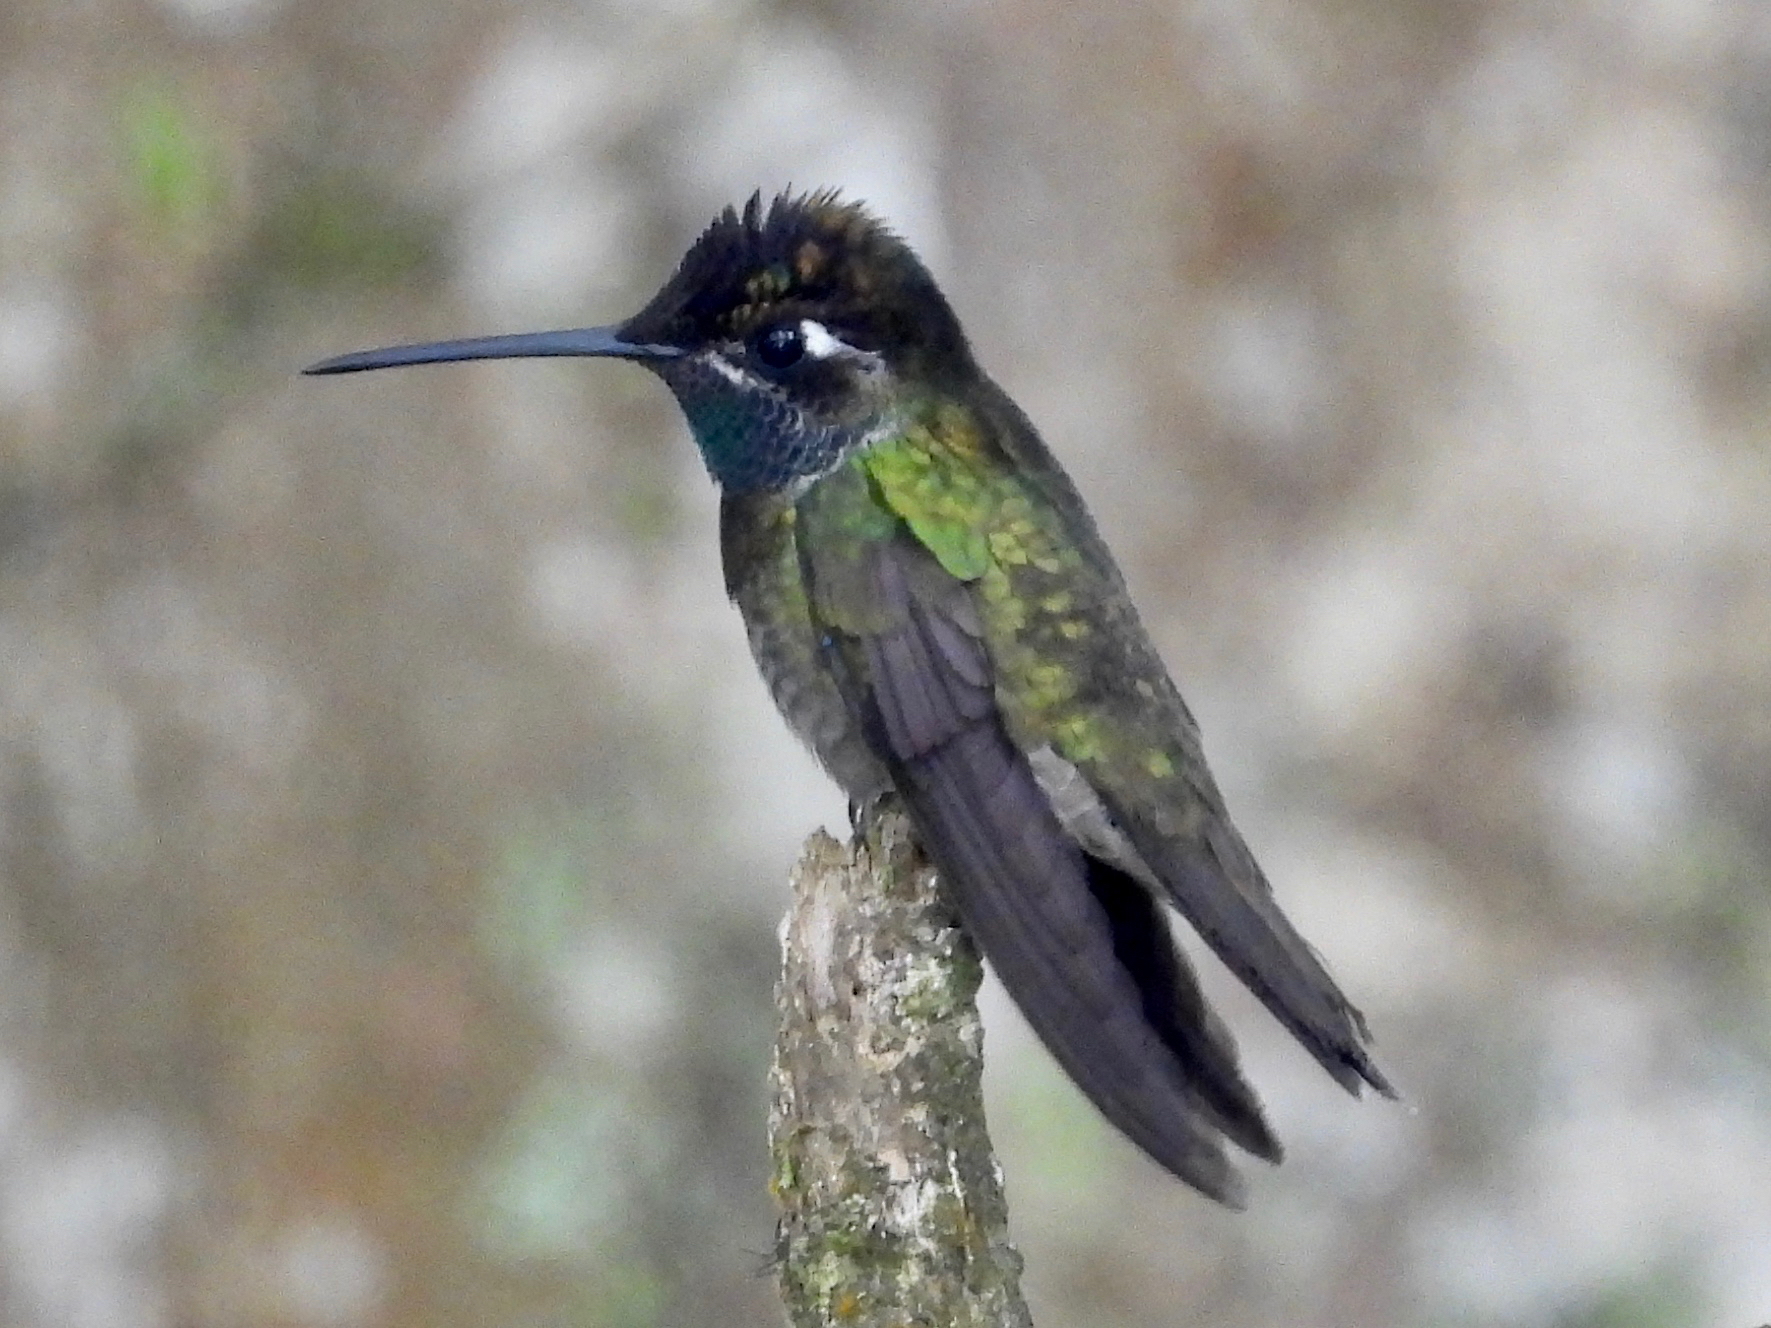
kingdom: Animalia
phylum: Chordata
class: Aves
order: Apodiformes
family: Trochilidae
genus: Eugenes
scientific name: Eugenes fulgens
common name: Magnificent hummingbird
